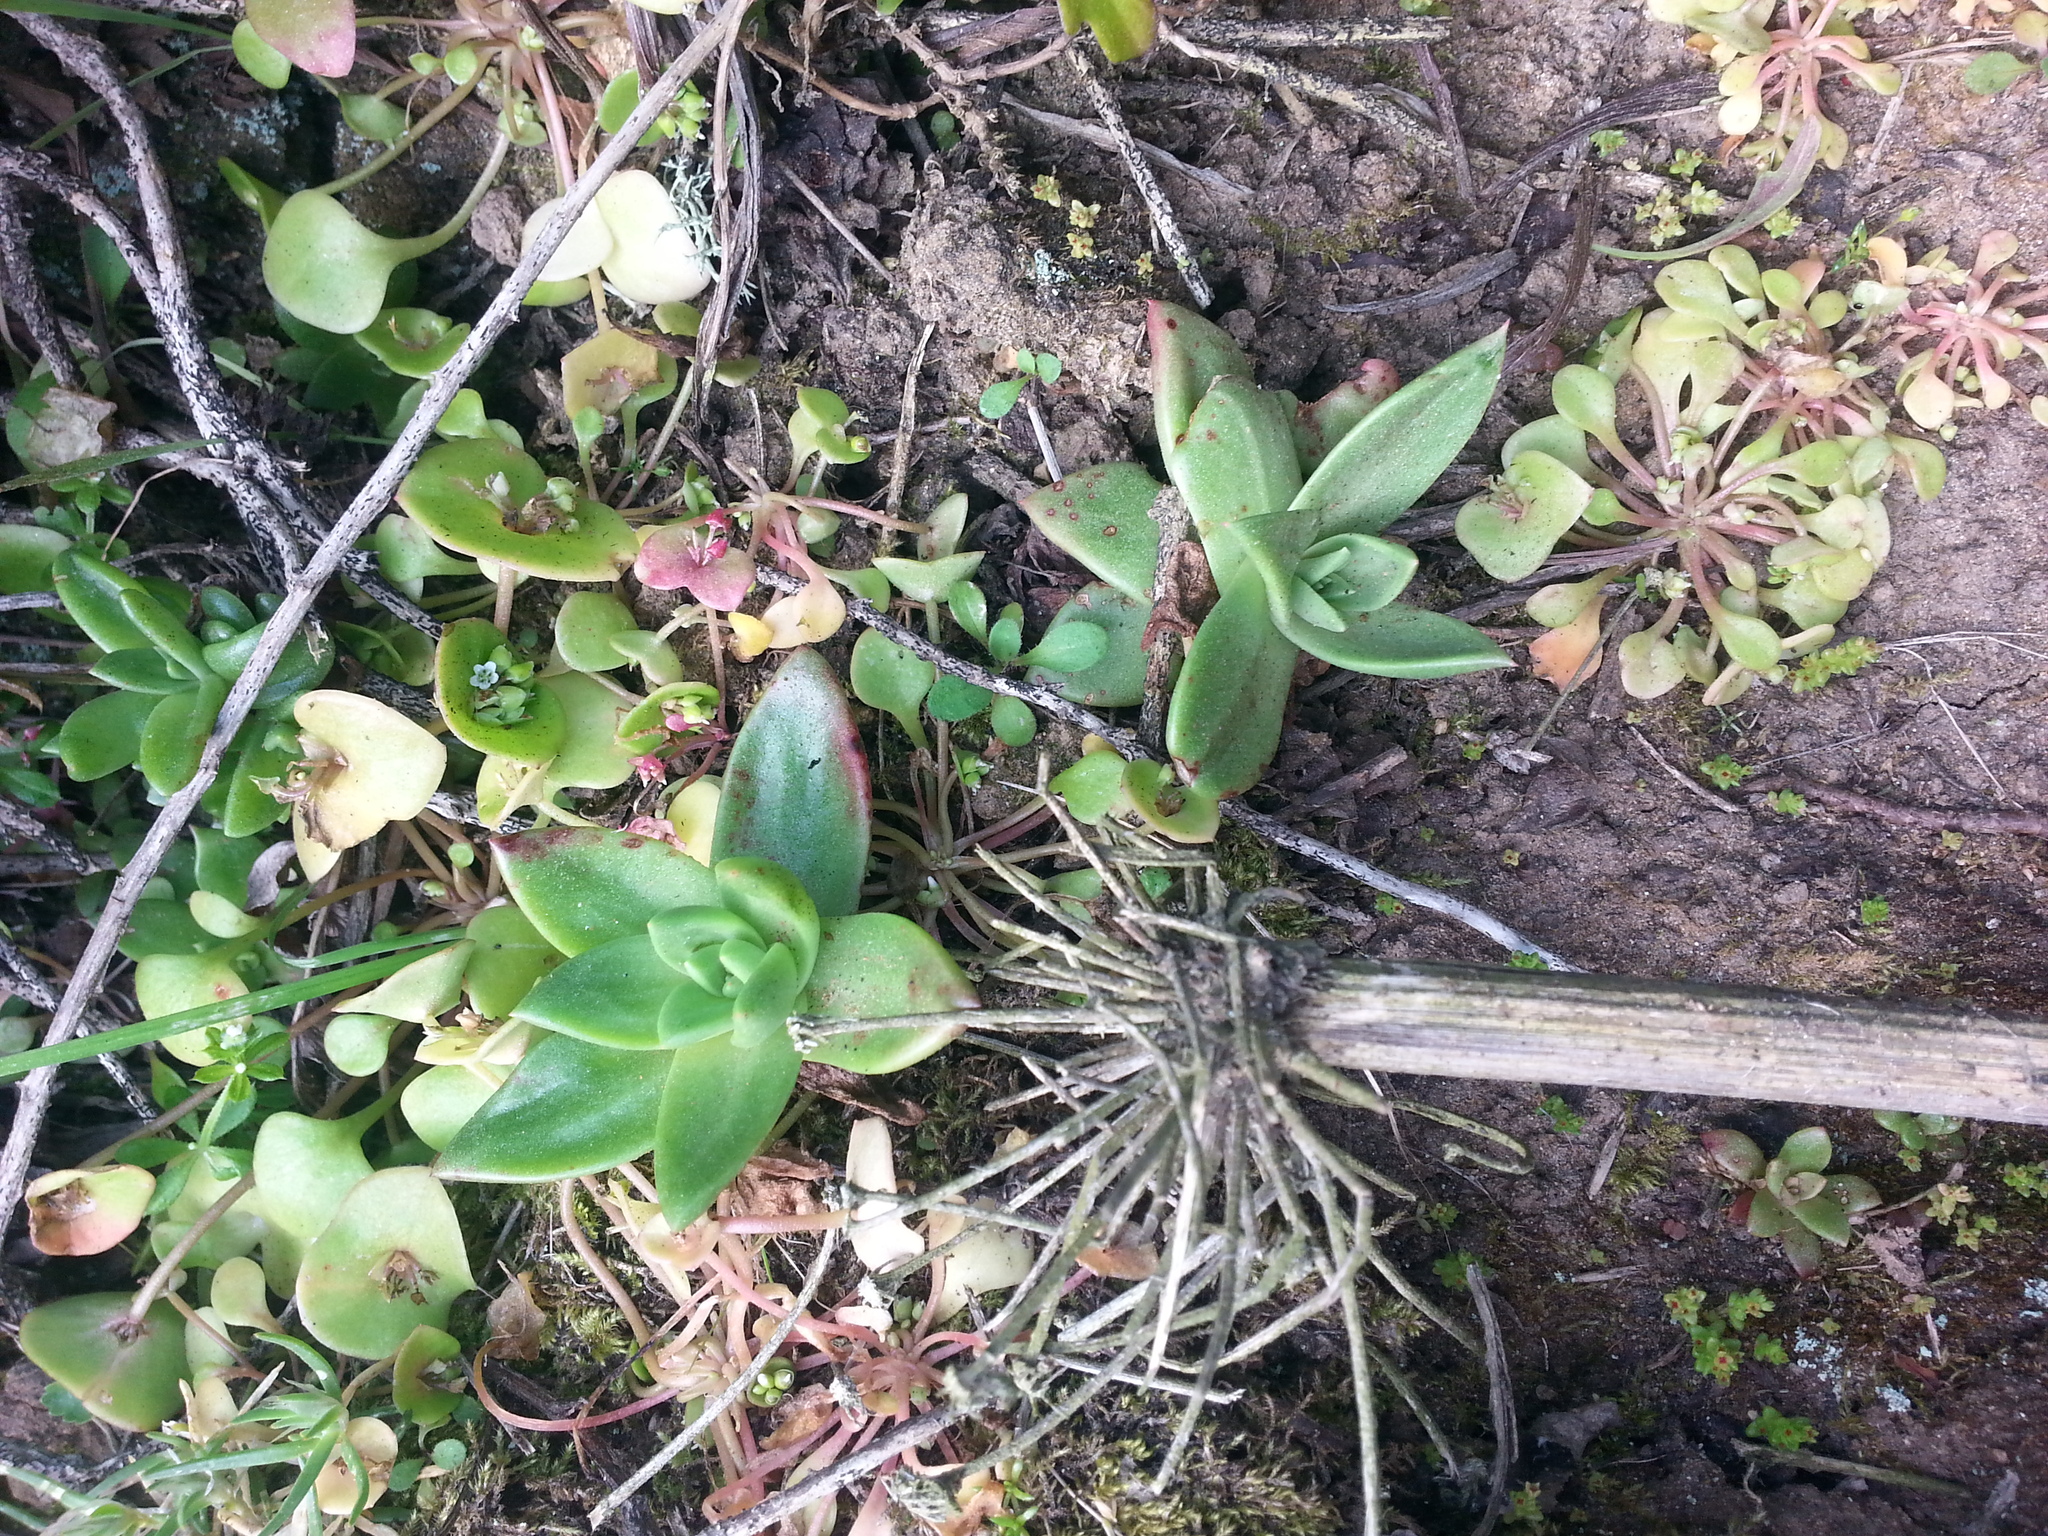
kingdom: Plantae
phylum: Tracheophyta
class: Magnoliopsida
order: Caryophyllales
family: Montiaceae
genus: Claytonia
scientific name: Claytonia perfoliata
